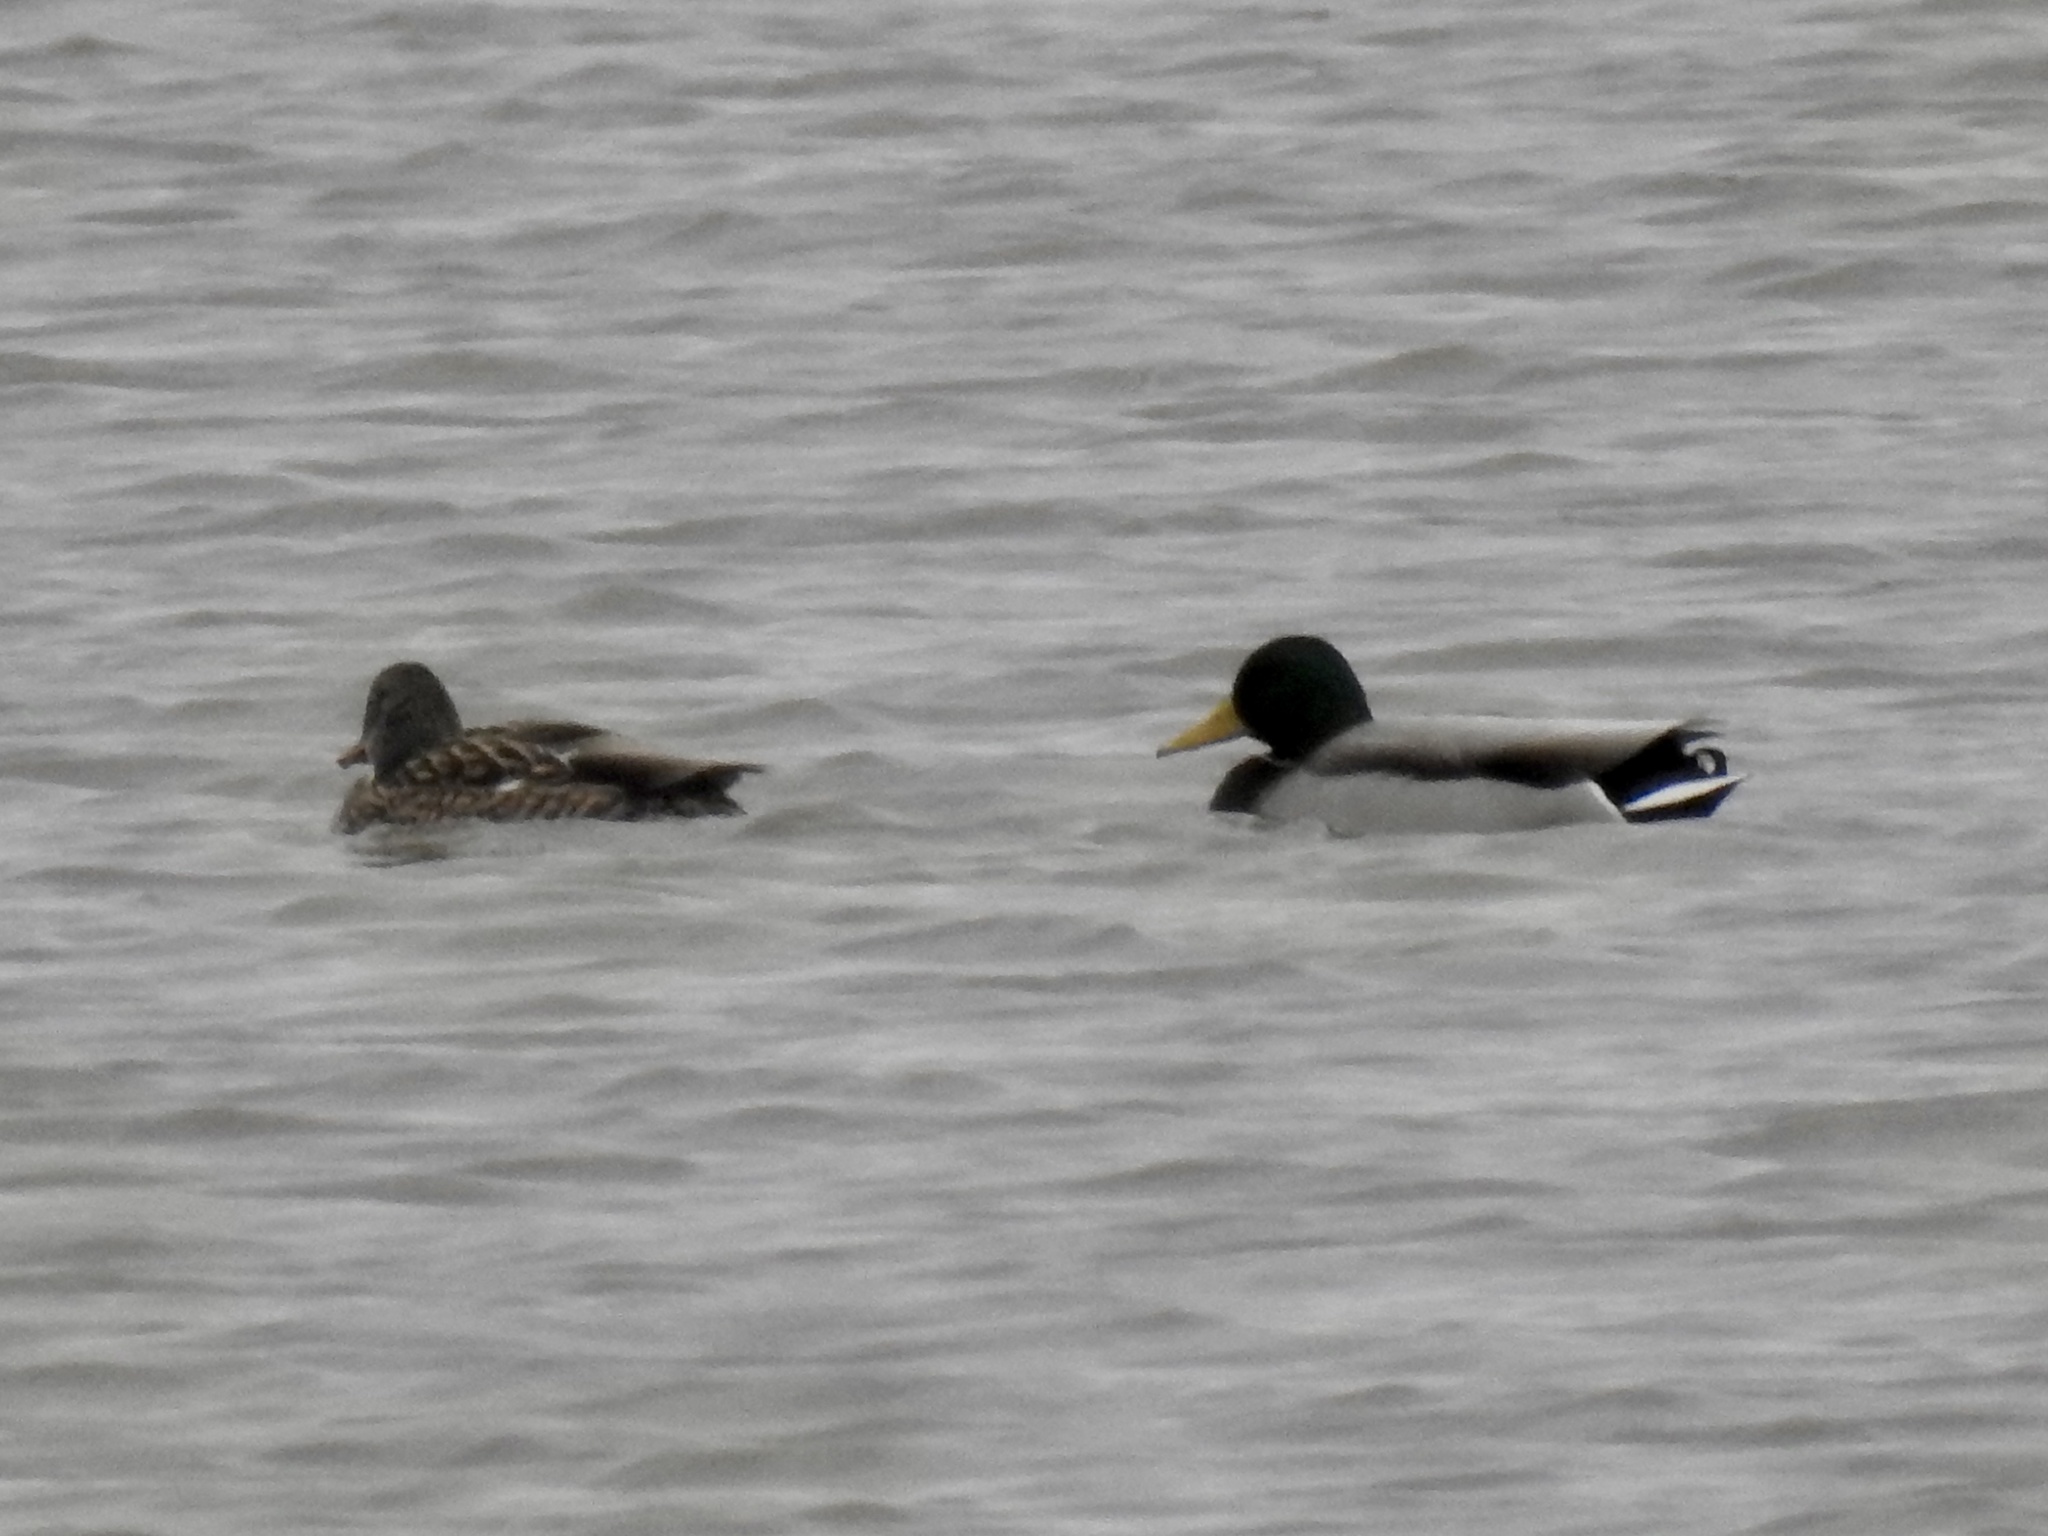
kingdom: Animalia
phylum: Chordata
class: Aves
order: Anseriformes
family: Anatidae
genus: Anas
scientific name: Anas platyrhynchos
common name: Mallard
